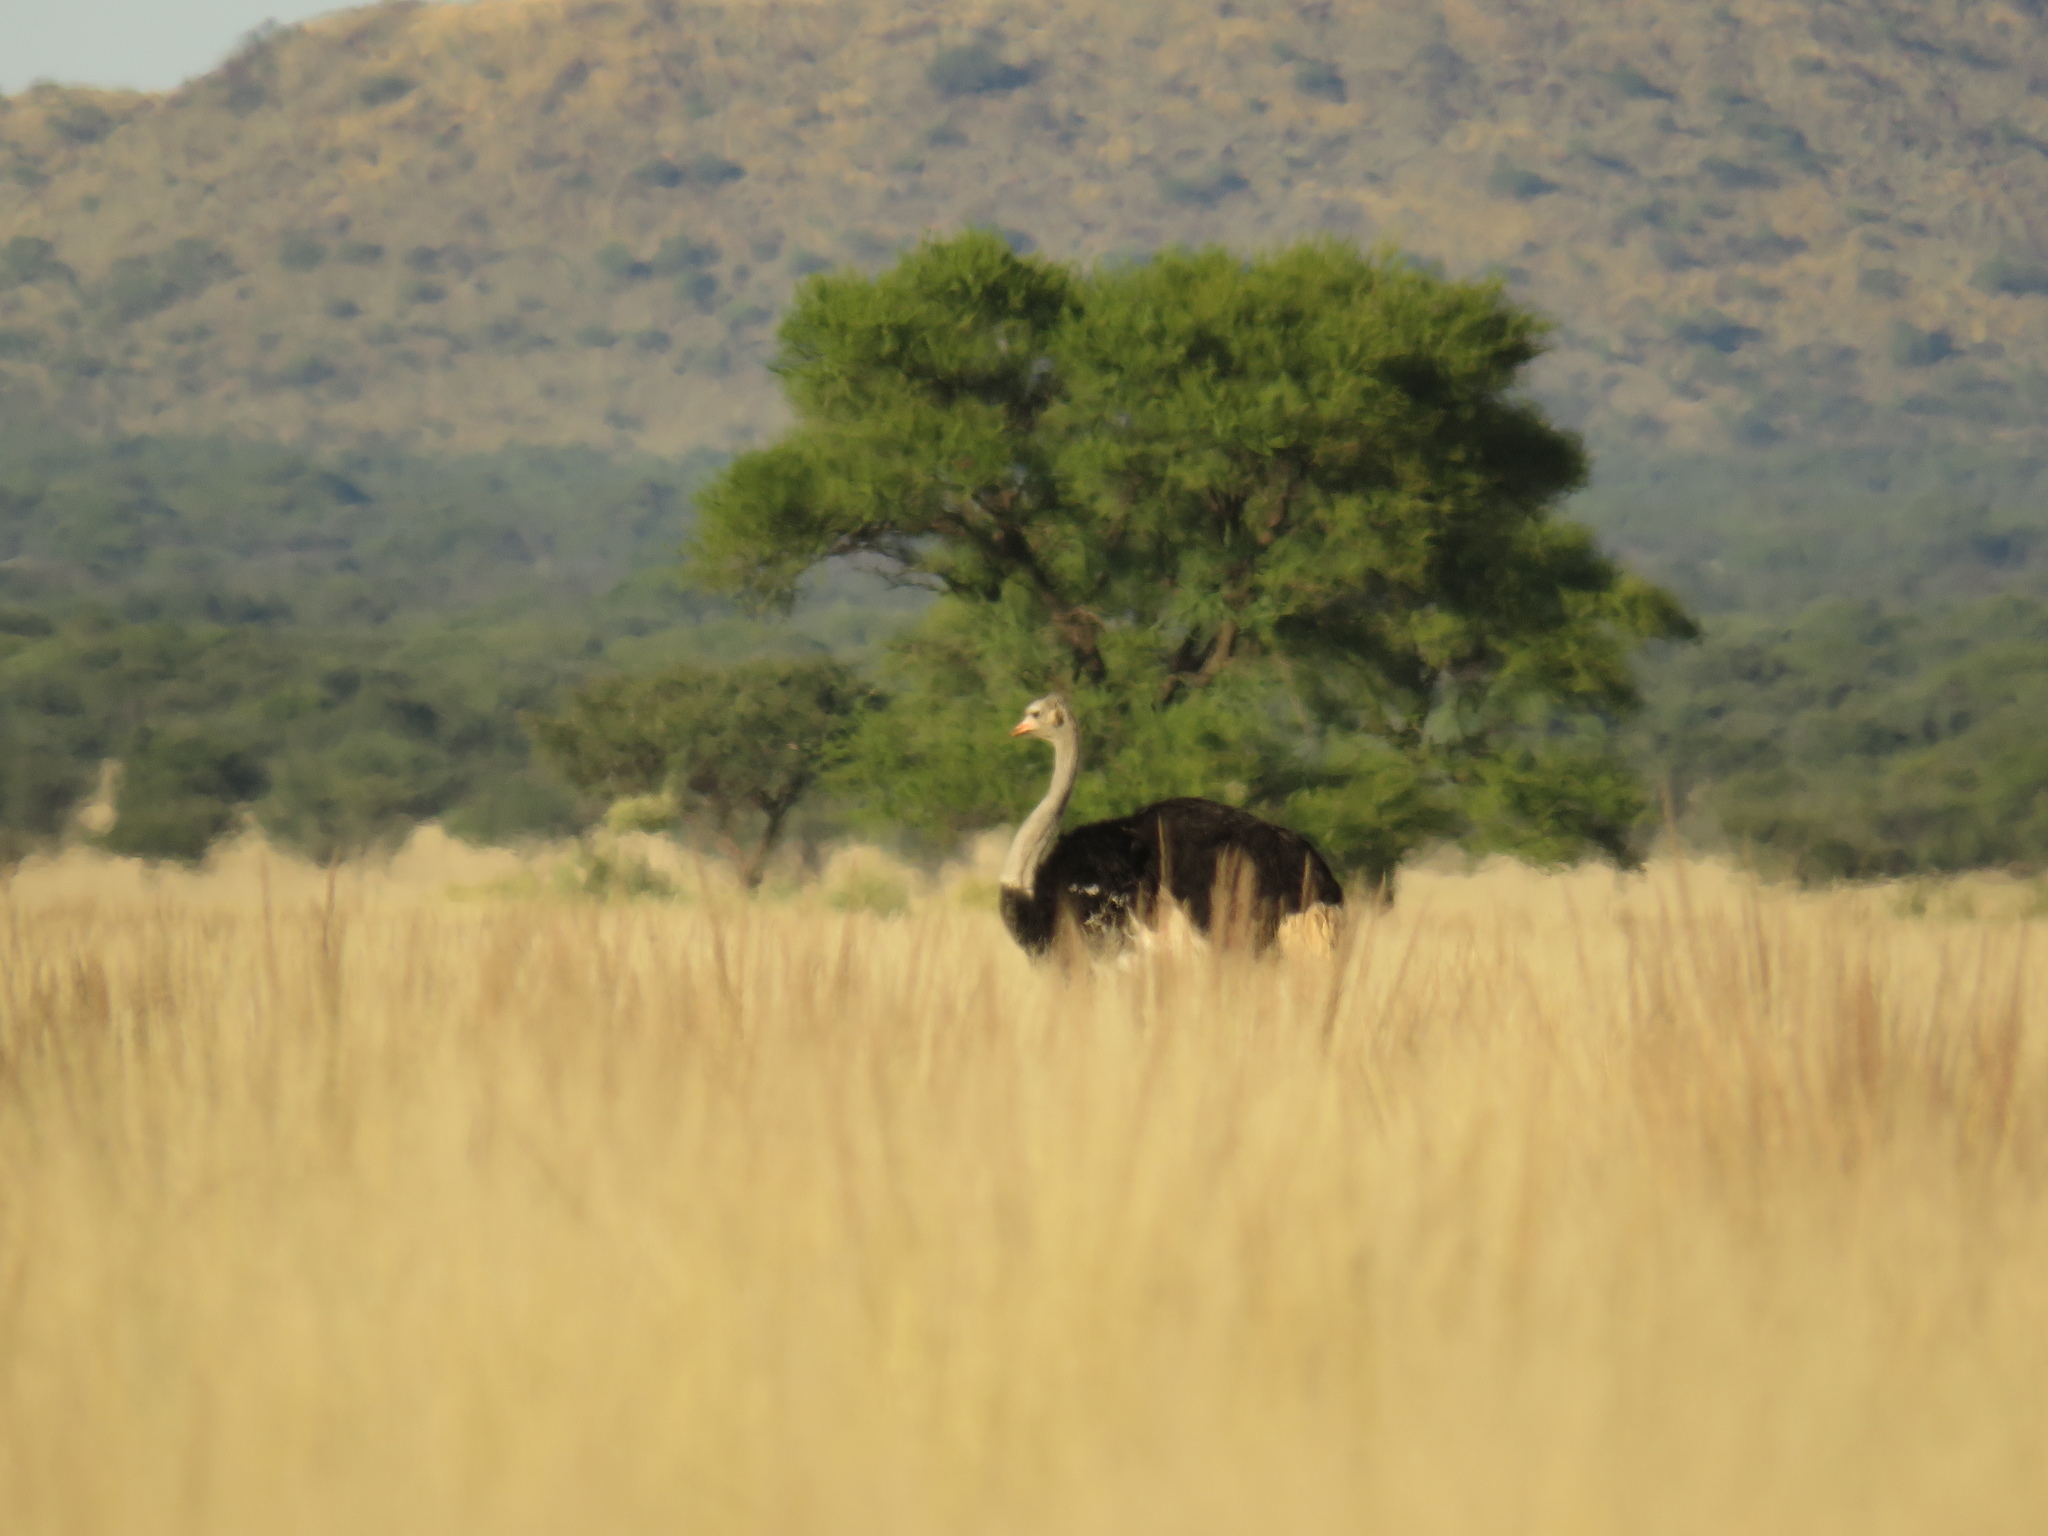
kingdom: Animalia
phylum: Chordata
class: Aves
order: Struthioniformes
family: Struthionidae
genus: Struthio
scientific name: Struthio camelus
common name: Common ostrich
